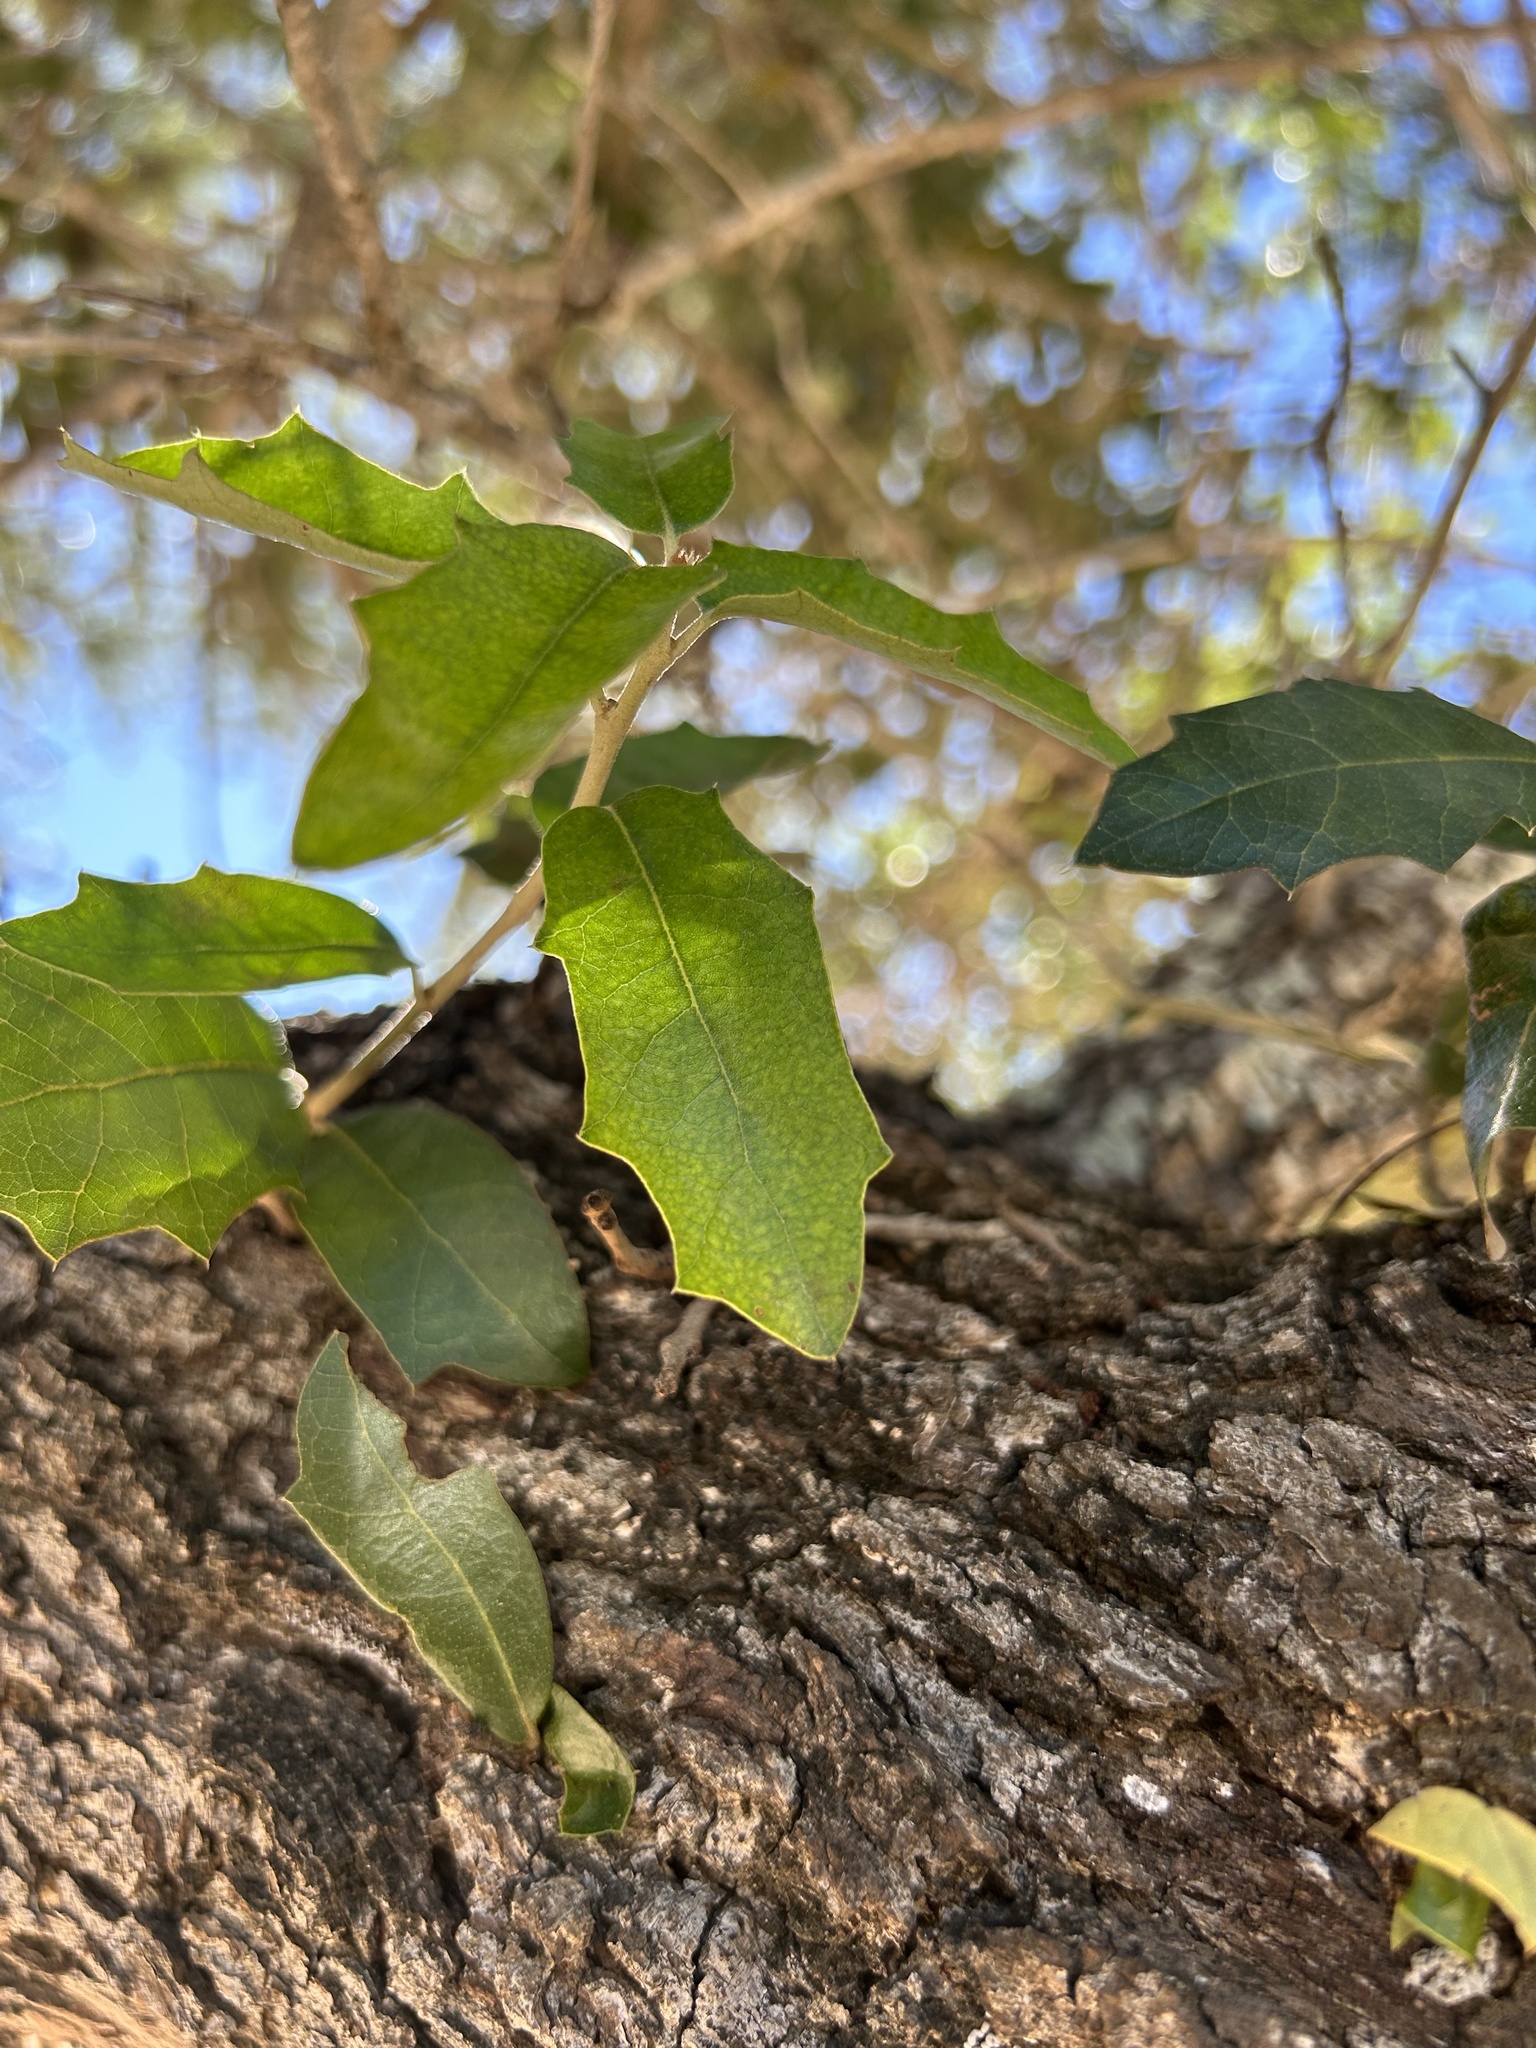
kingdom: Plantae
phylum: Tracheophyta
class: Magnoliopsida
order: Fagales
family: Fagaceae
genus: Quercus
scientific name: Quercus brandegeei
